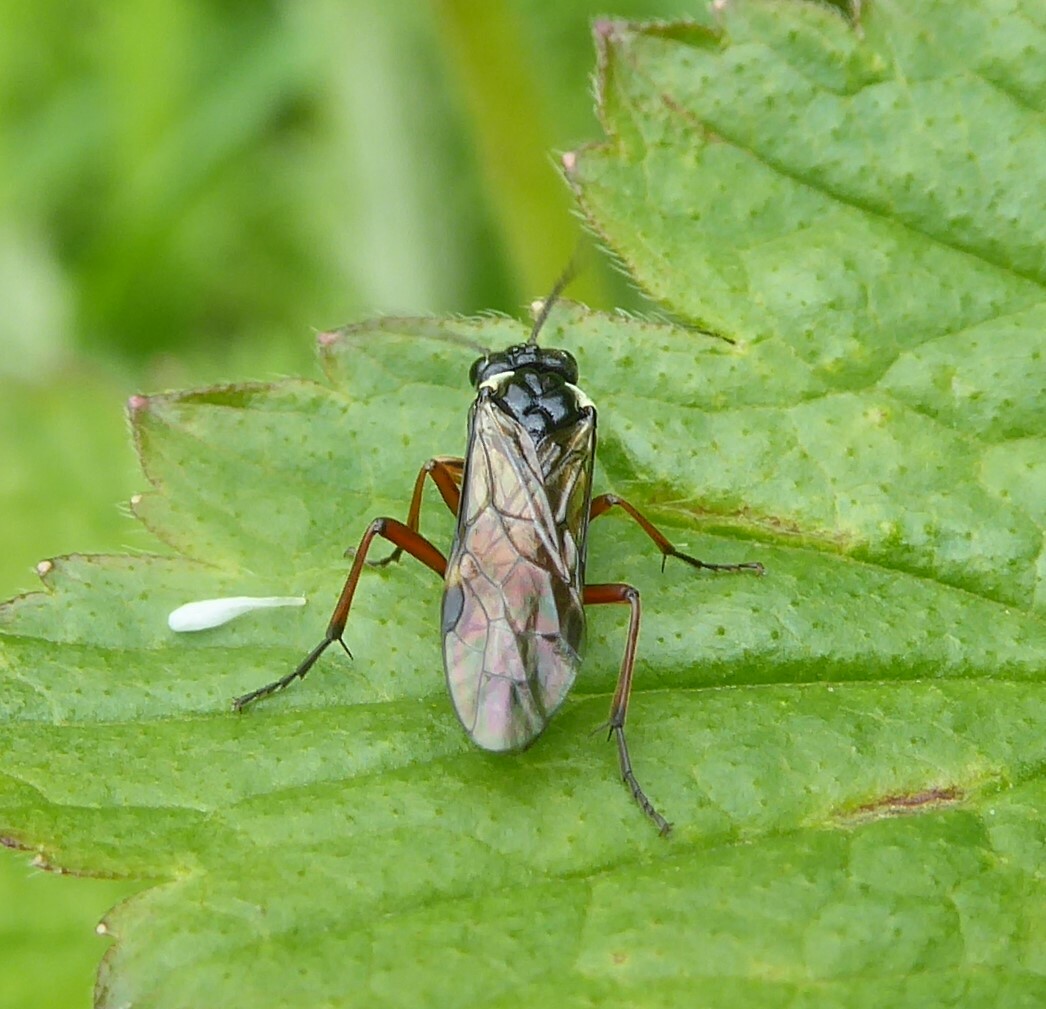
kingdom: Animalia
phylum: Arthropoda
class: Insecta
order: Hymenoptera
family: Tenthredinidae
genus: Aglaostigma
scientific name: Aglaostigma aucupariae
